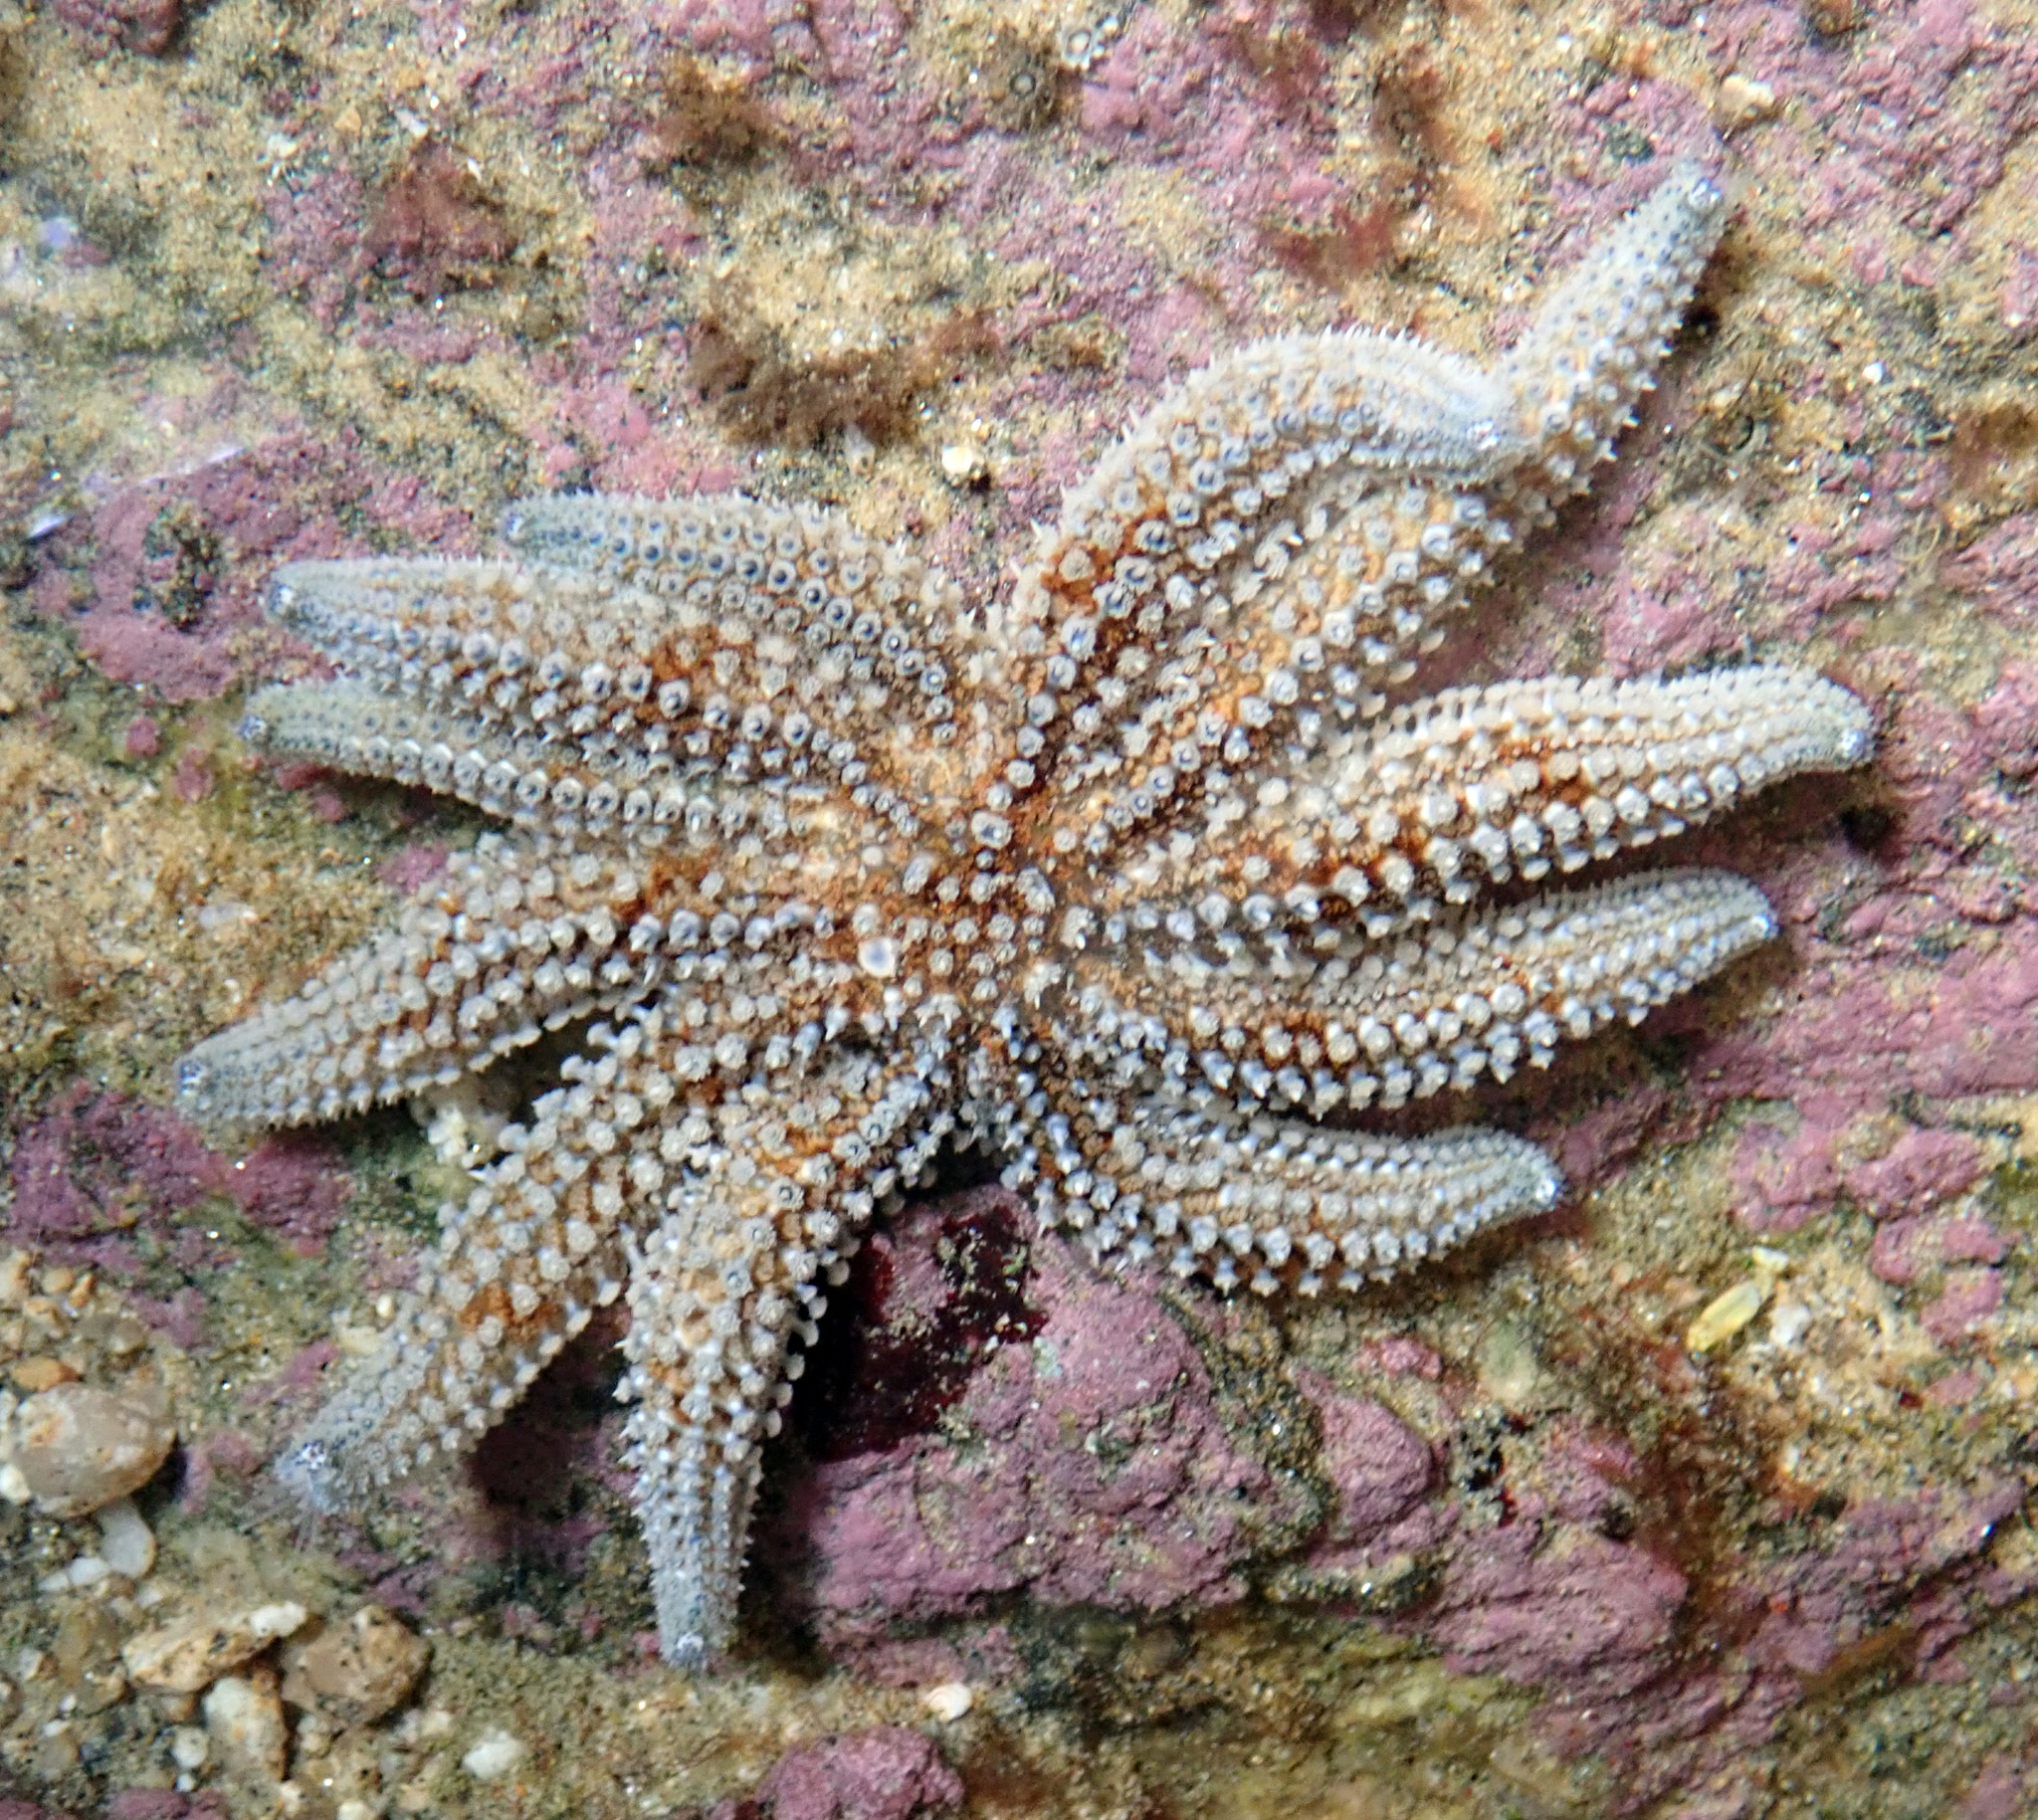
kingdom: Animalia
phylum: Echinodermata
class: Asteroidea
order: Forcipulatida
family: Asteriidae
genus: Coscinasterias
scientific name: Coscinasterias muricata
